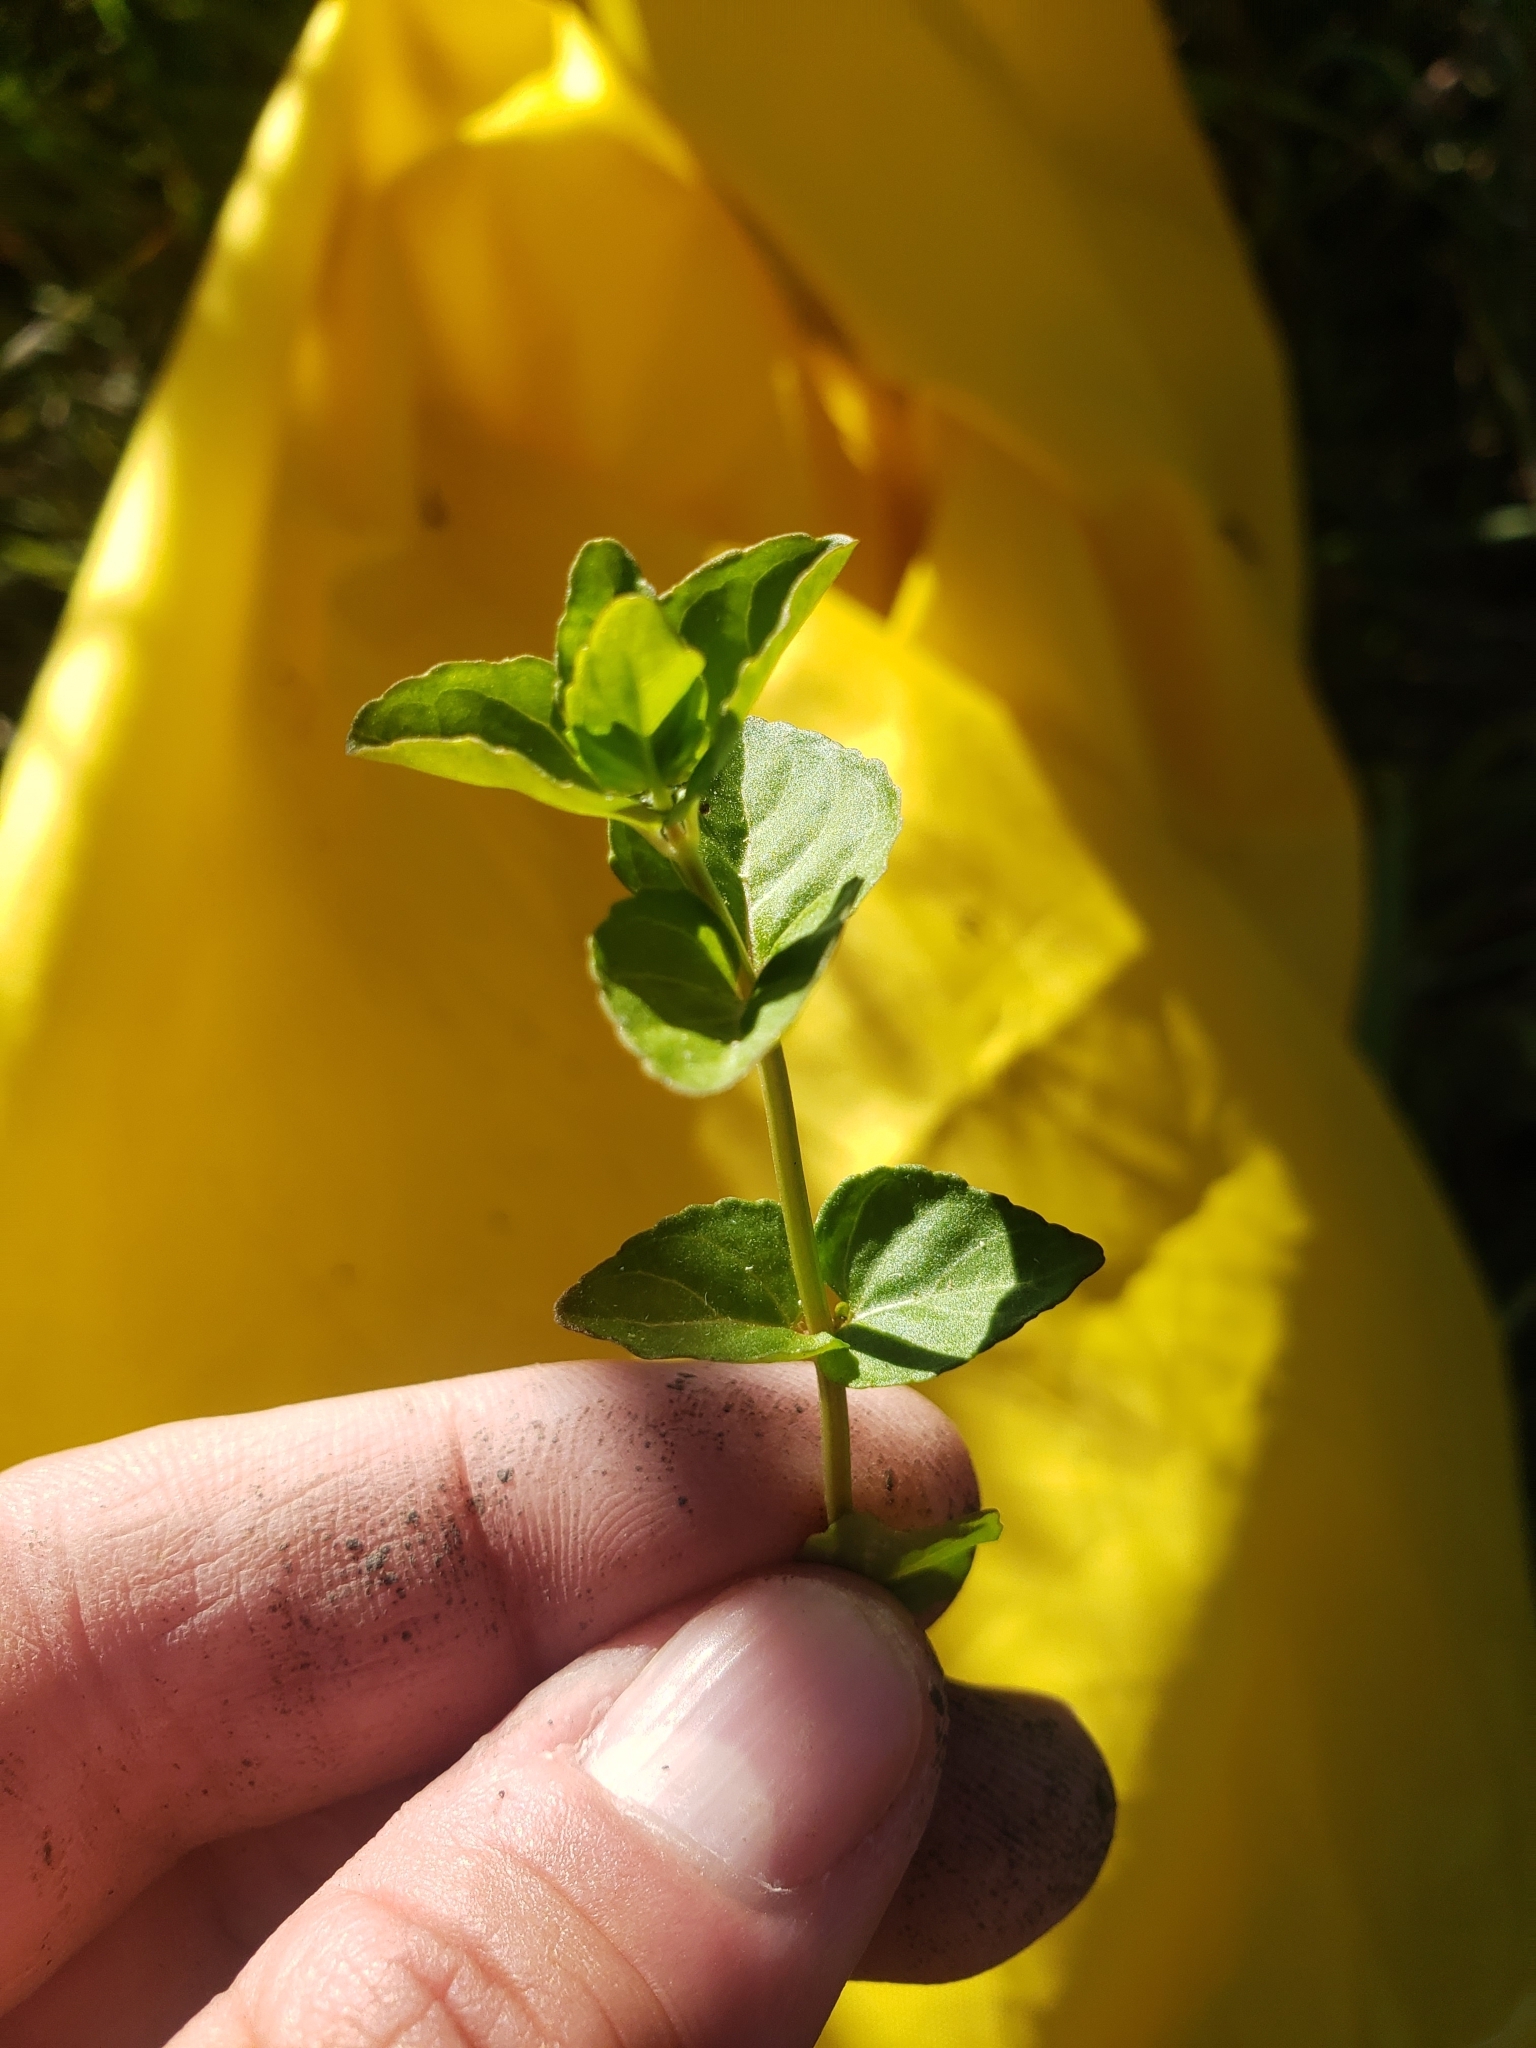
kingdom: Plantae
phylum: Tracheophyta
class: Magnoliopsida
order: Lamiales
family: Lamiaceae
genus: Clinopodium
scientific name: Clinopodium brownei
